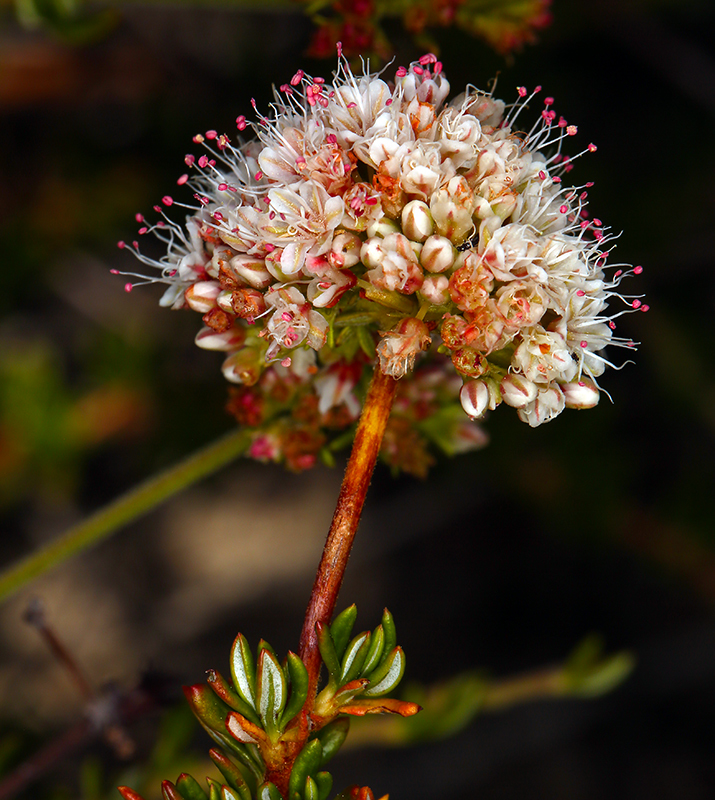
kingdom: Plantae
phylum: Tracheophyta
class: Magnoliopsida
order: Caryophyllales
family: Polygonaceae
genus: Eriogonum
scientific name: Eriogonum fasciculatum
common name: California wild buckwheat
